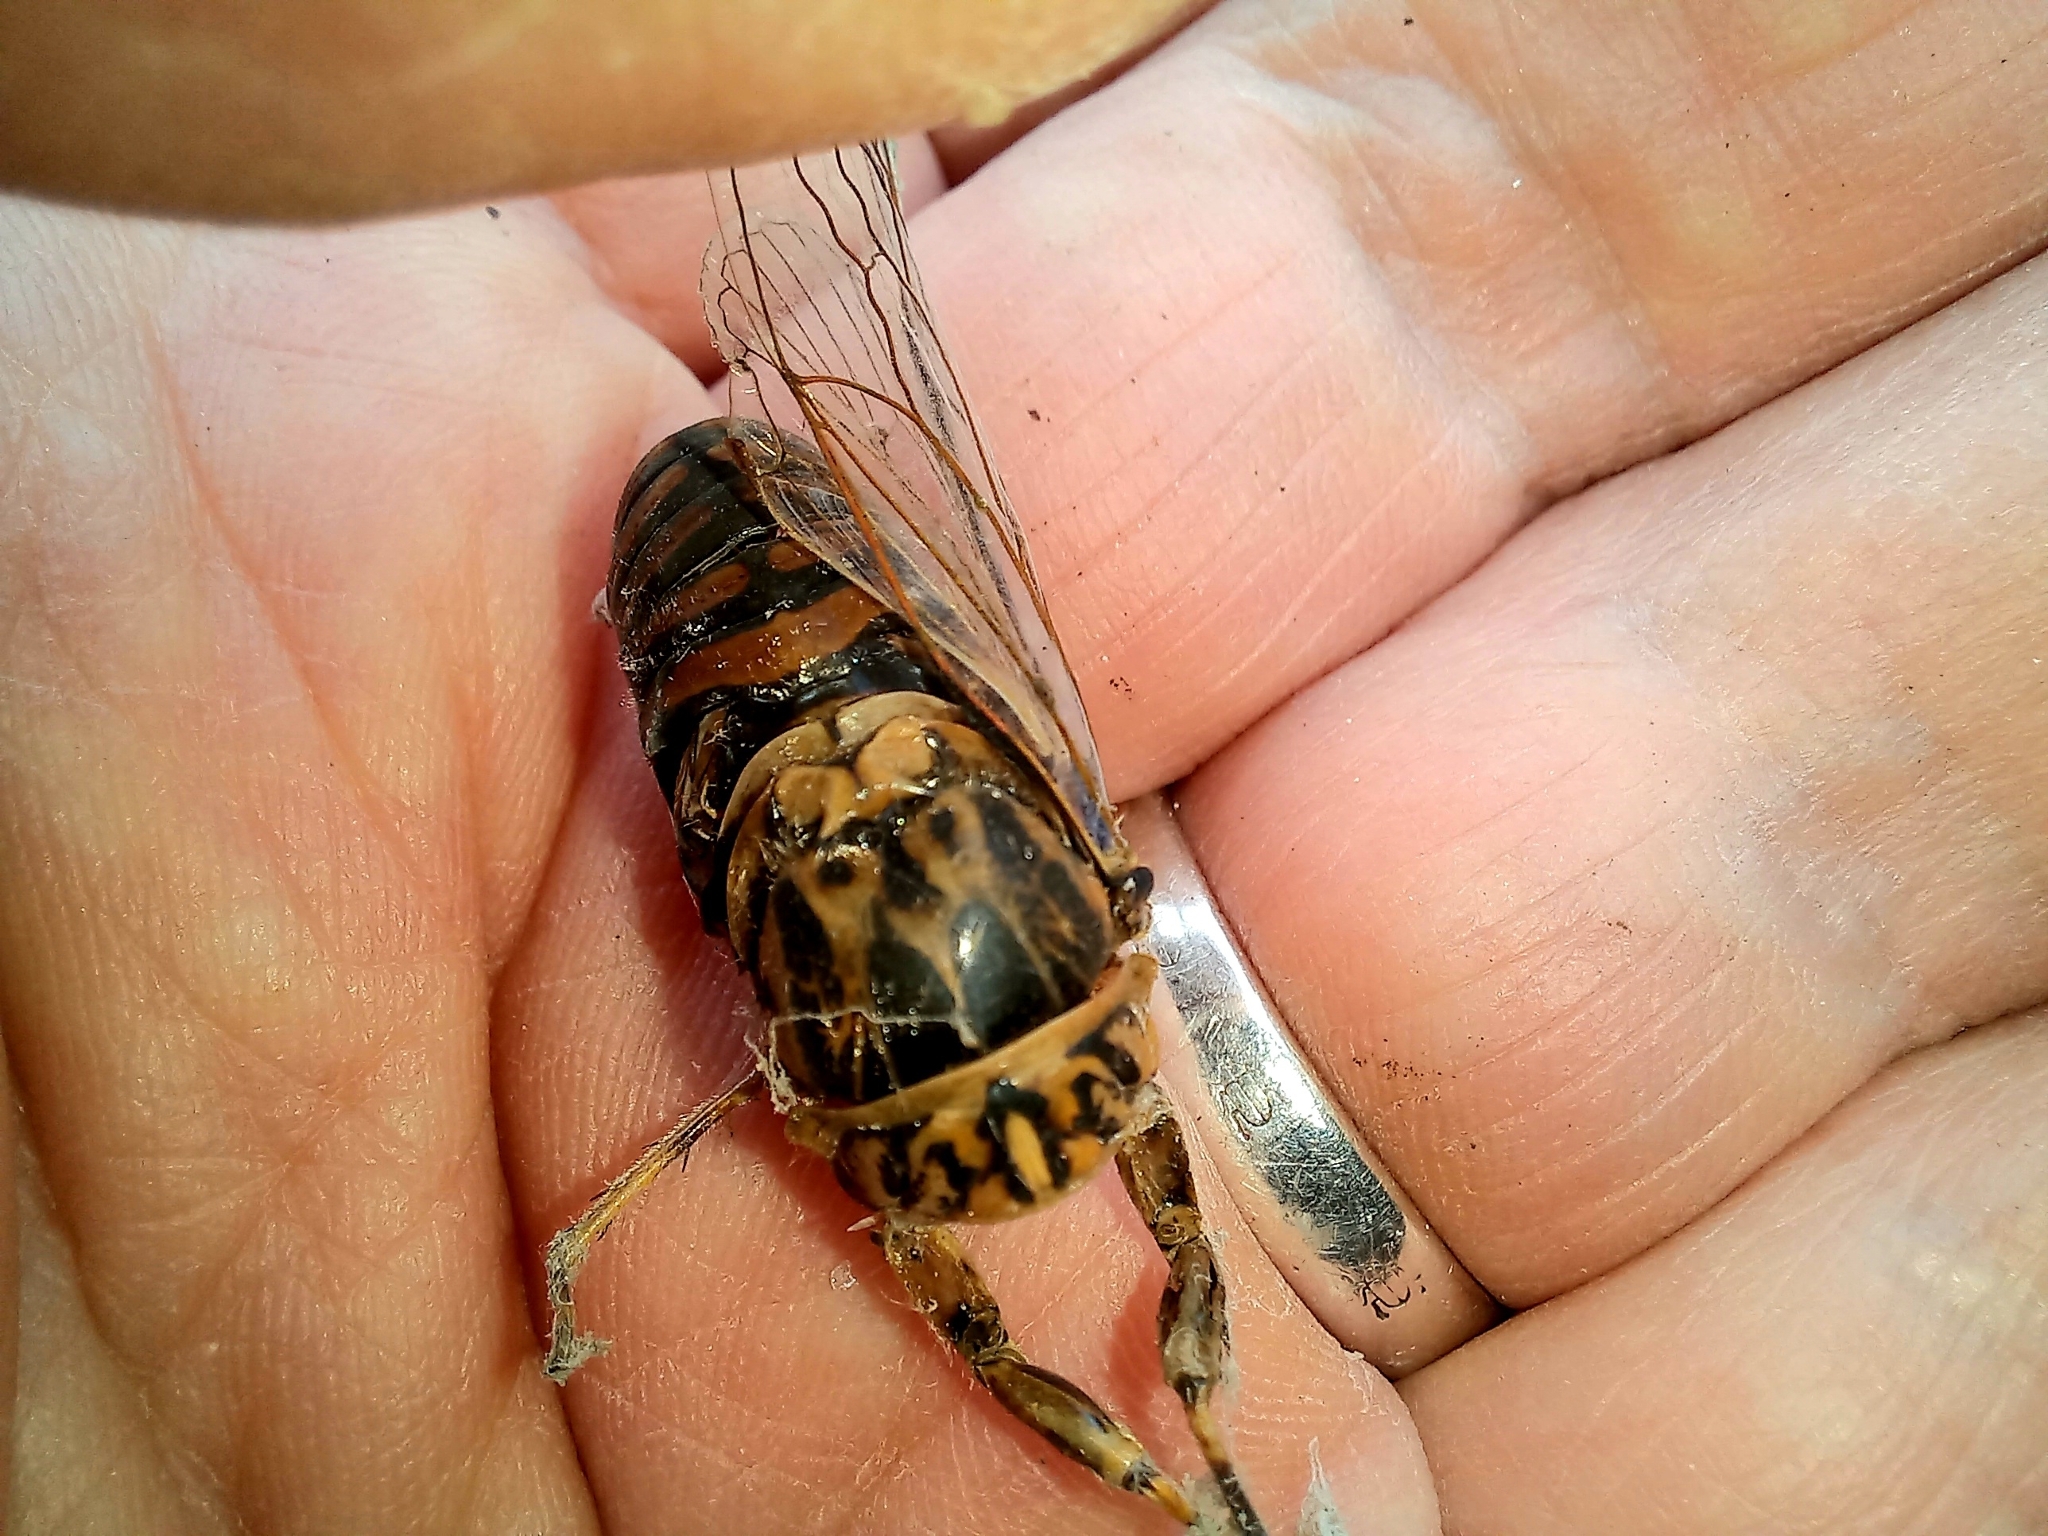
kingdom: Animalia
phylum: Arthropoda
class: Insecta
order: Hemiptera
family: Cicadidae
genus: Amphipsalta
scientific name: Amphipsalta zelandica
